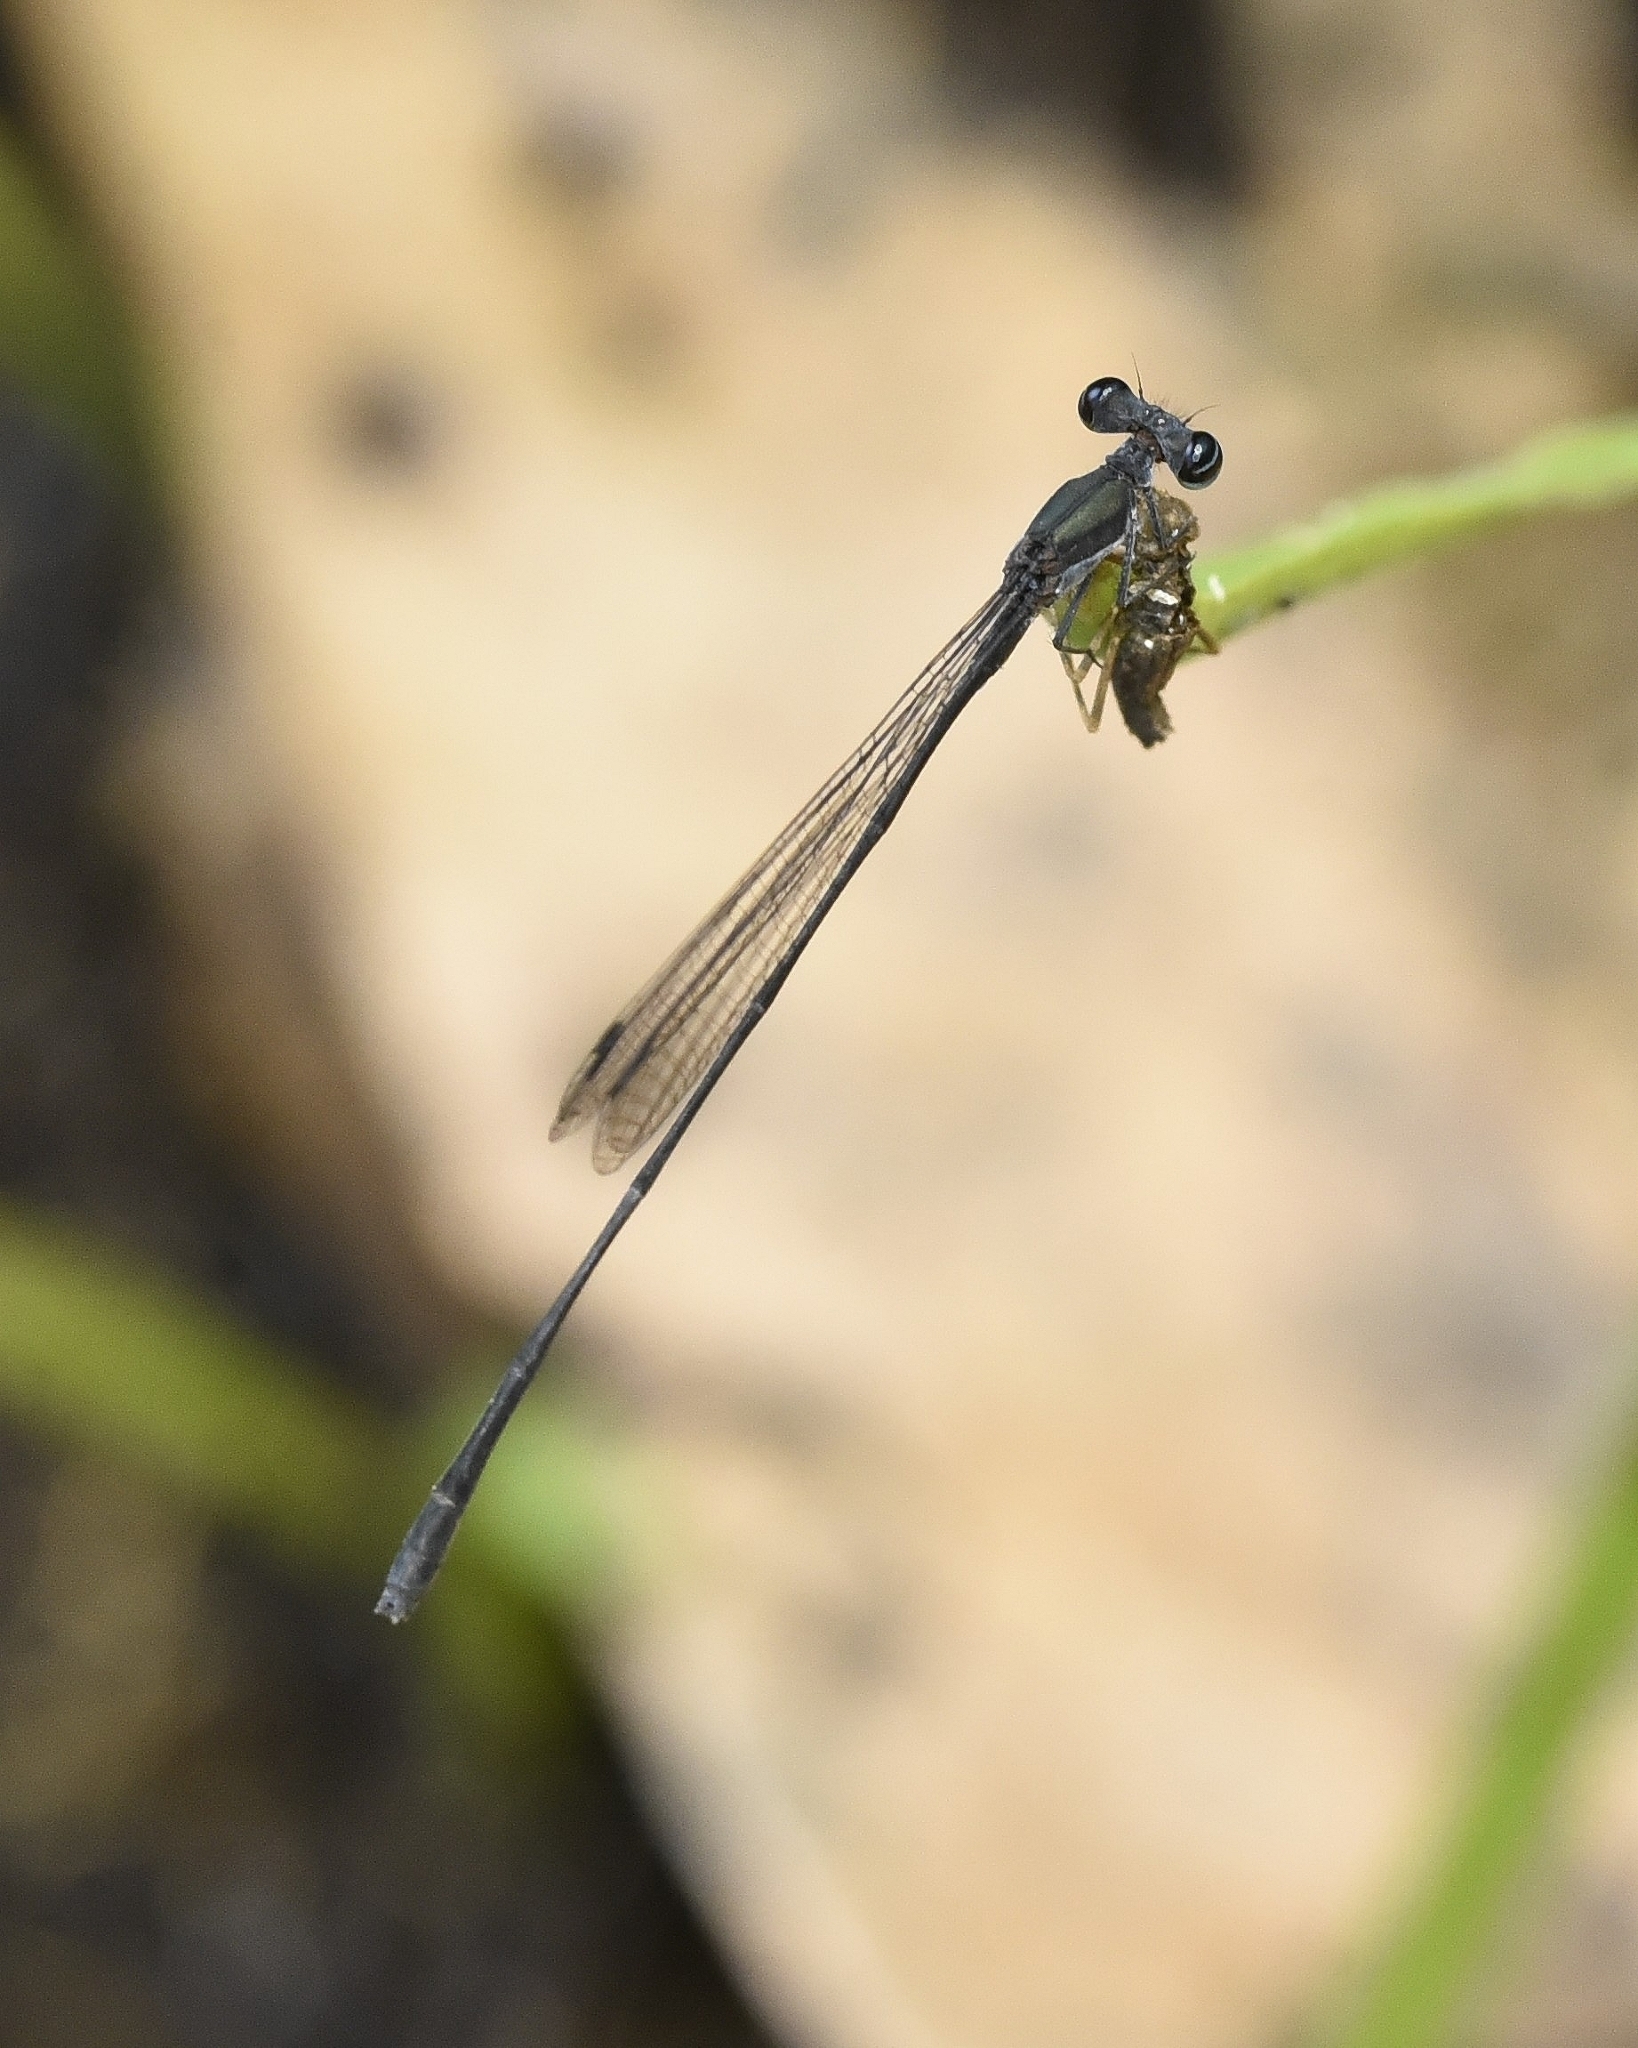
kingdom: Animalia
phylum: Arthropoda
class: Insecta
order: Odonata
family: Platycnemididae
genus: Elattoneura
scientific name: Elattoneura tetrica
